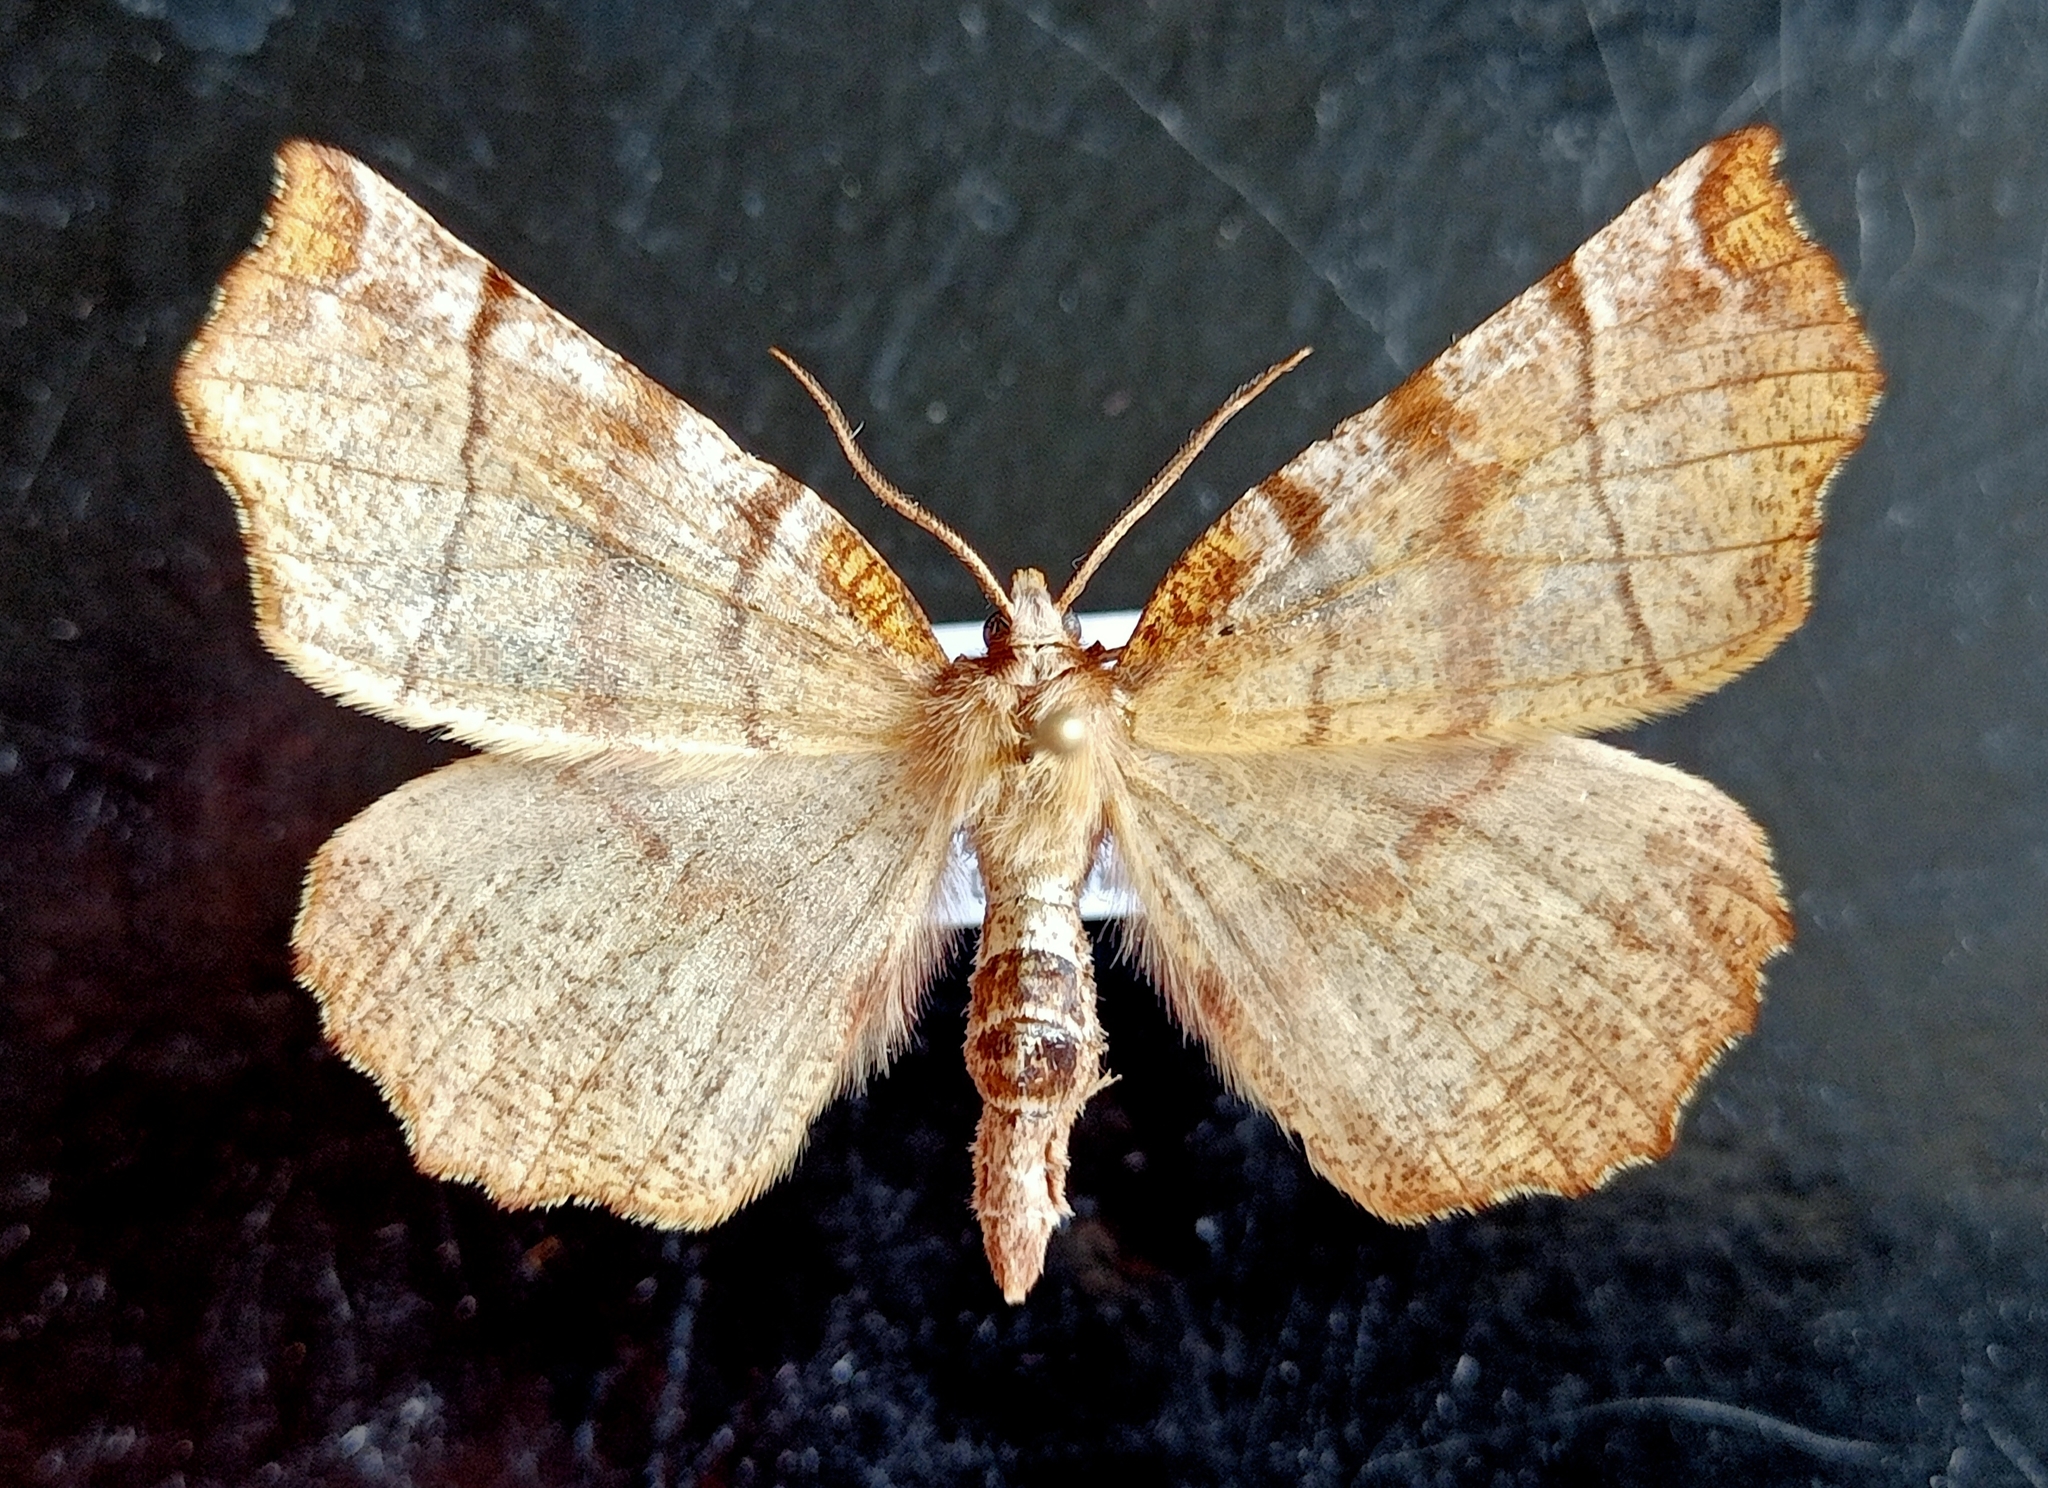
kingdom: Animalia
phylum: Arthropoda
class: Insecta
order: Lepidoptera
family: Geometridae
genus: Selenia
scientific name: Selenia dentaria
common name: Early thorn
